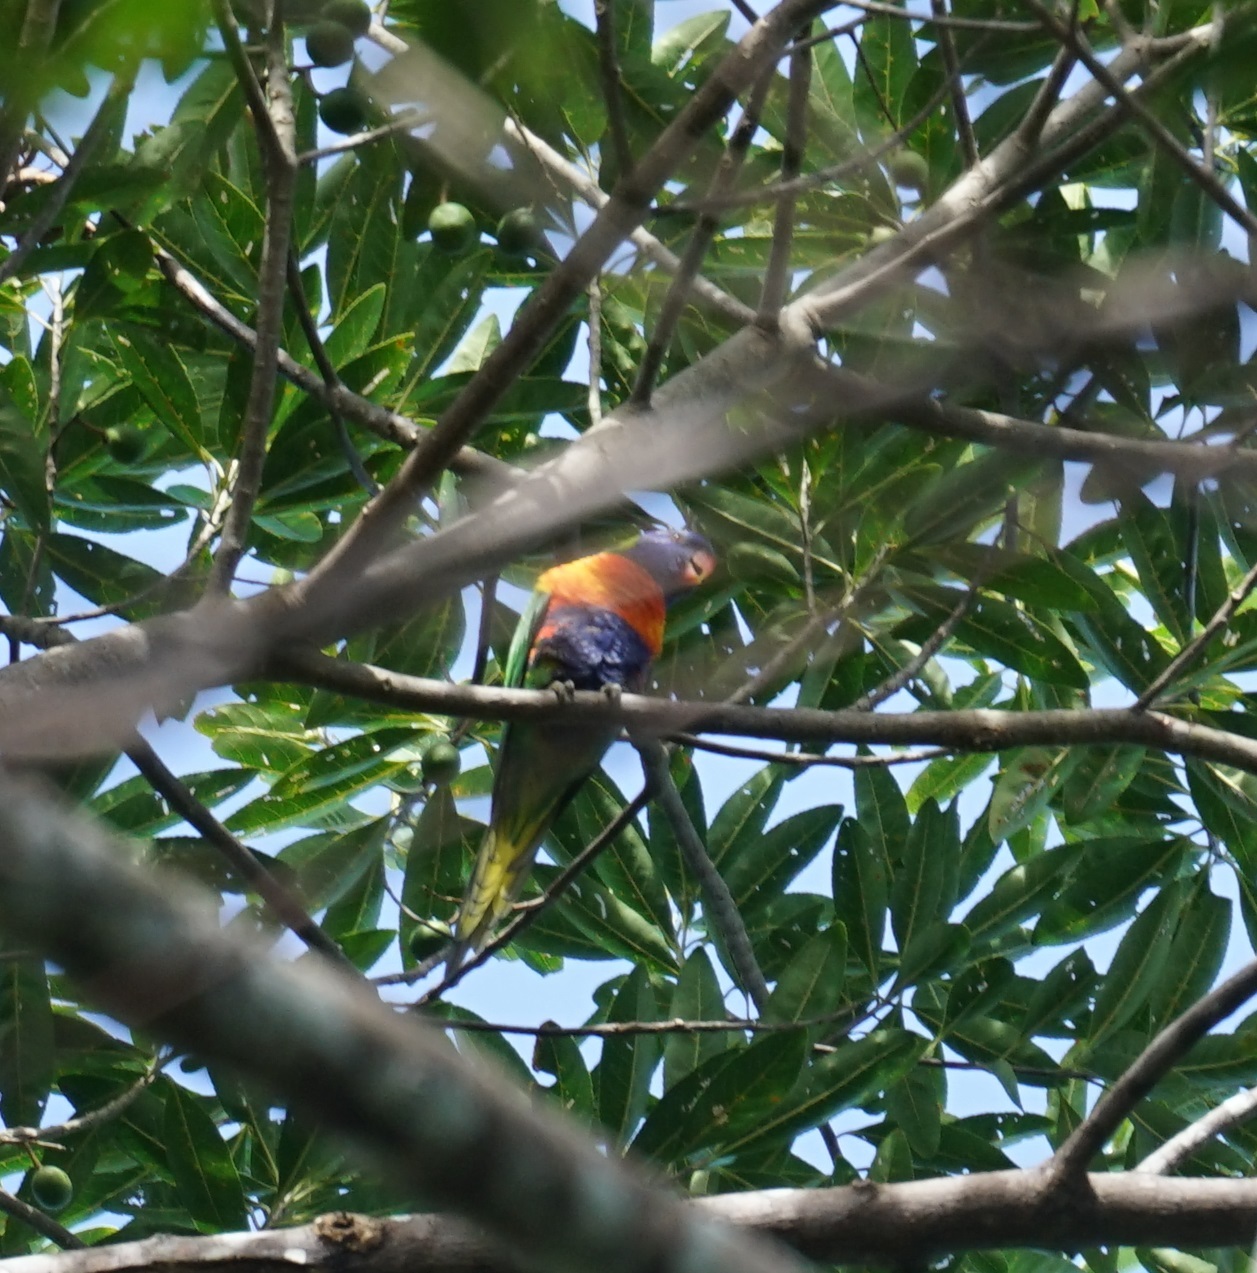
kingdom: Animalia
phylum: Chordata
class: Aves
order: Psittaciformes
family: Psittacidae
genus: Trichoglossus
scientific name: Trichoglossus haematodus
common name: Coconut lorikeet
